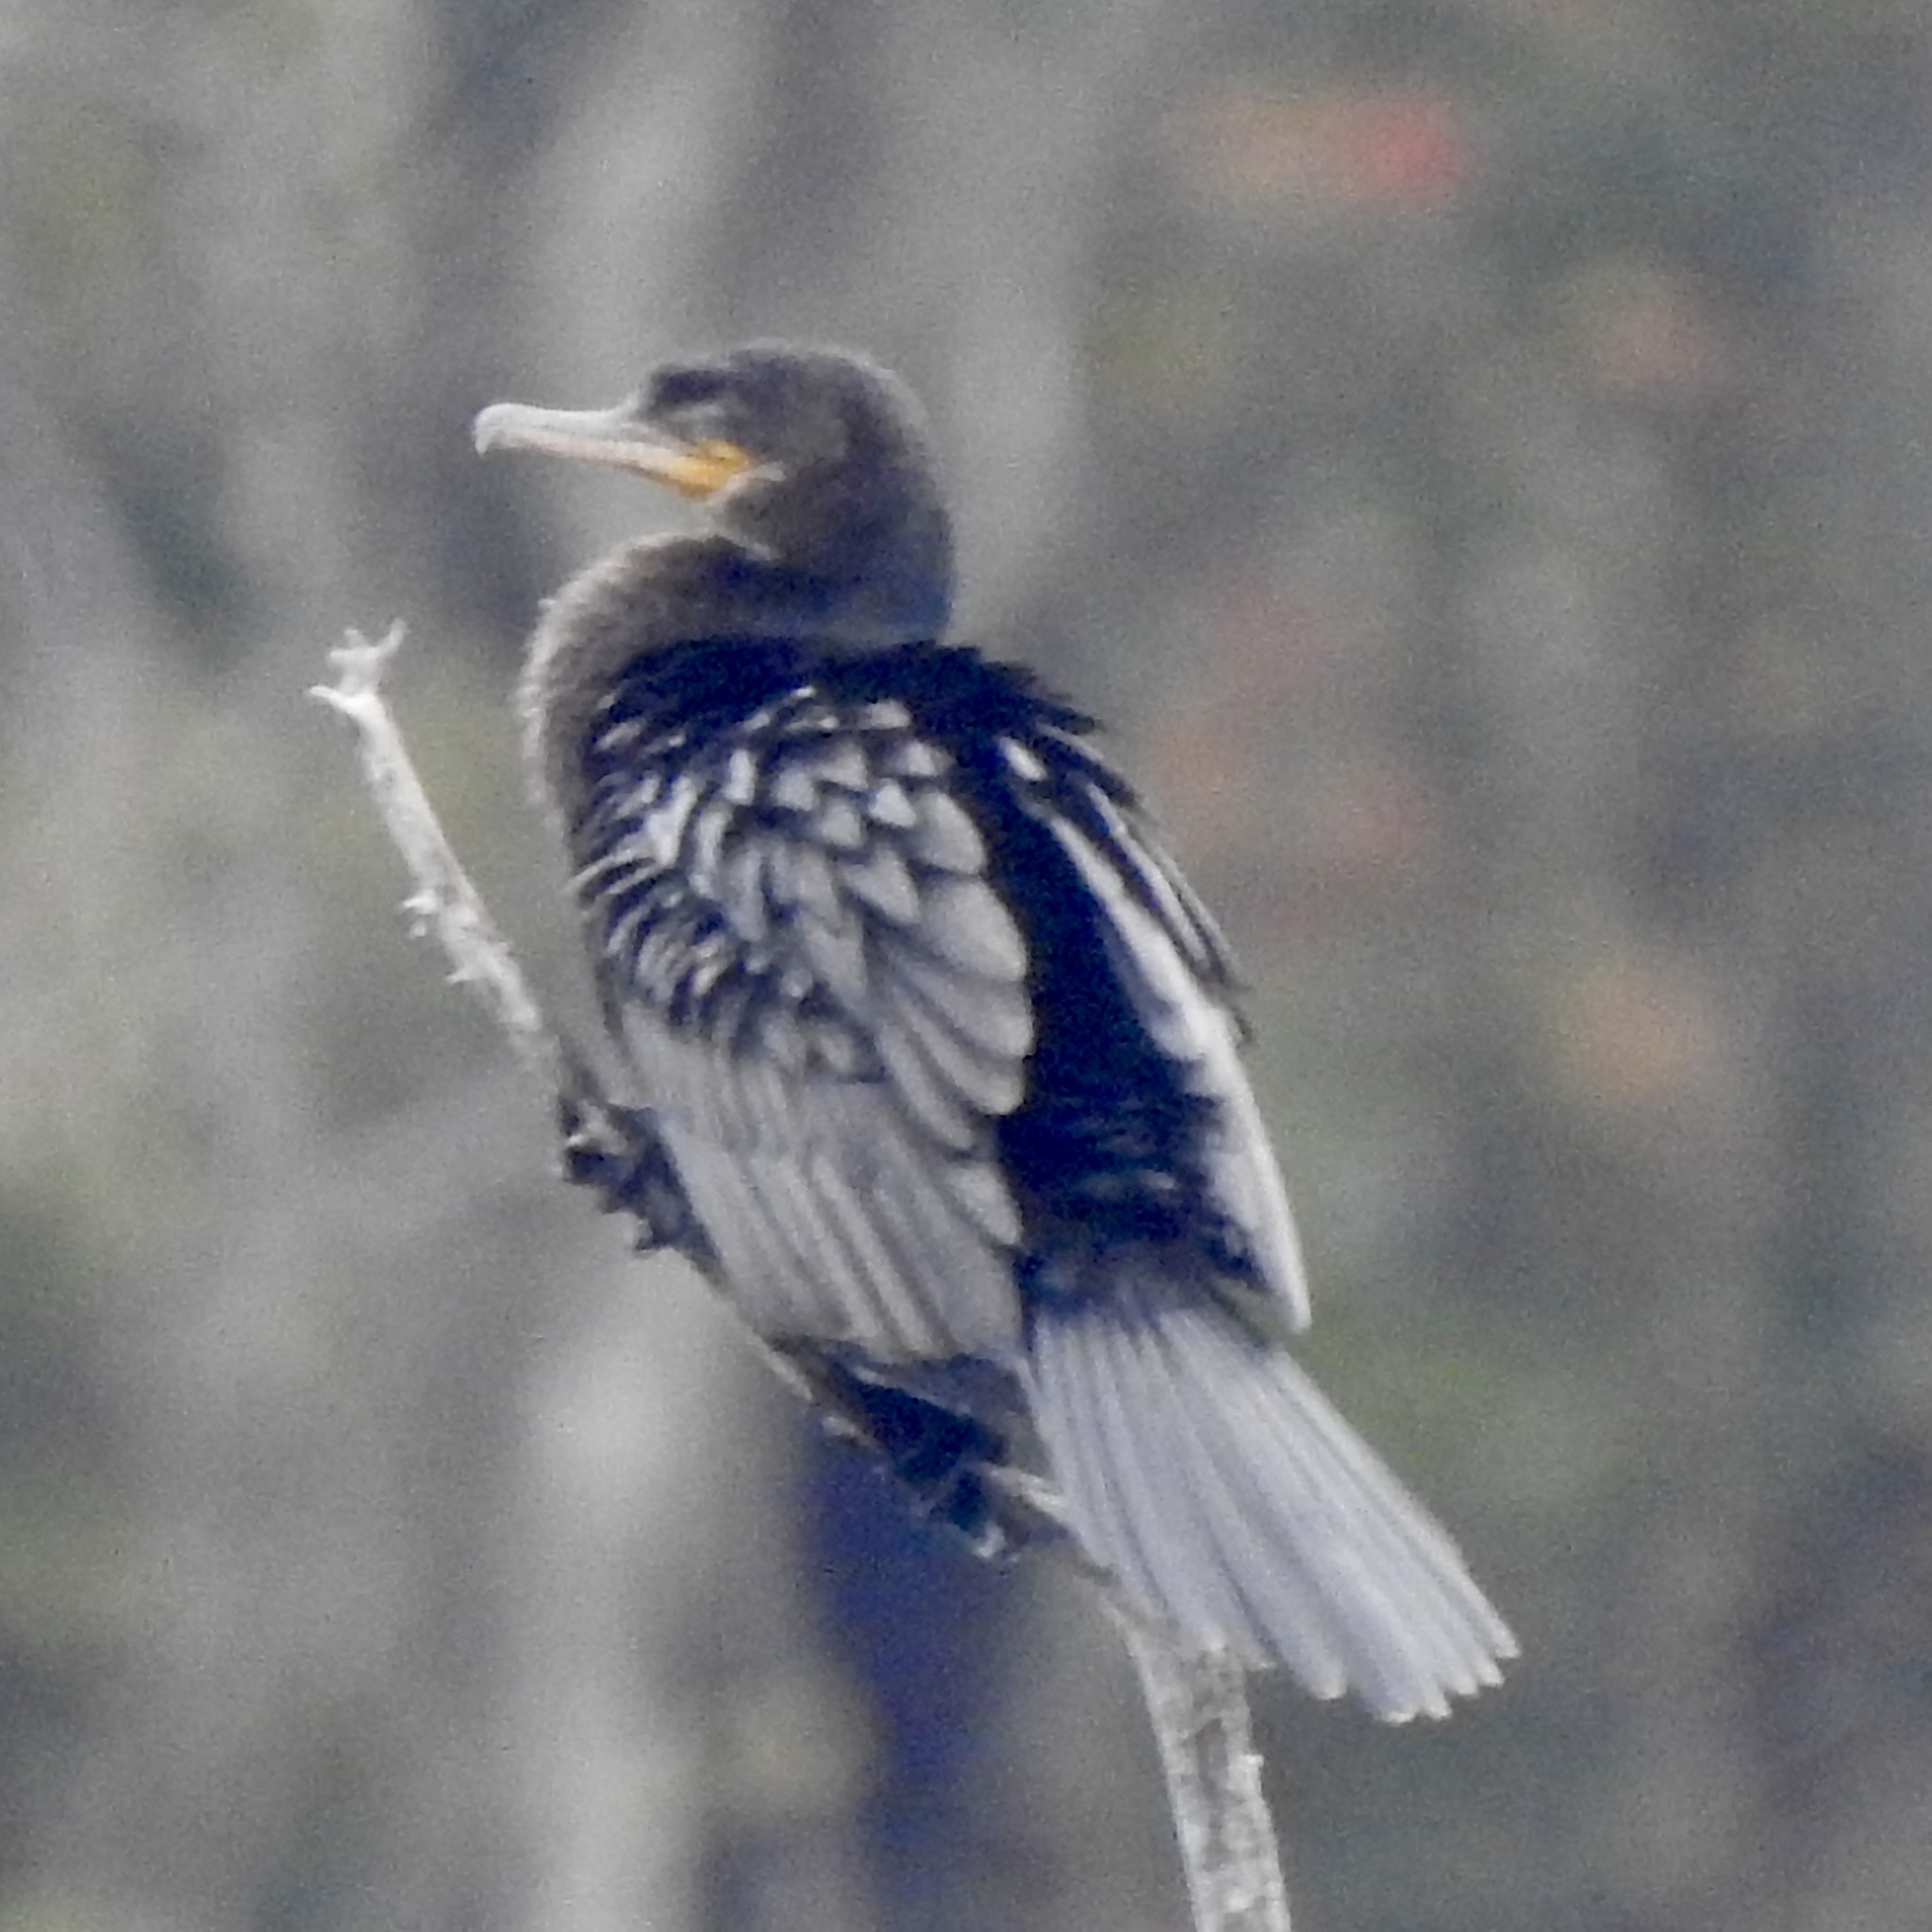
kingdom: Animalia
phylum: Chordata
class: Aves
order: Suliformes
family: Phalacrocoracidae
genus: Phalacrocorax
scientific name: Phalacrocorax brasilianus
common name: Neotropic cormorant
